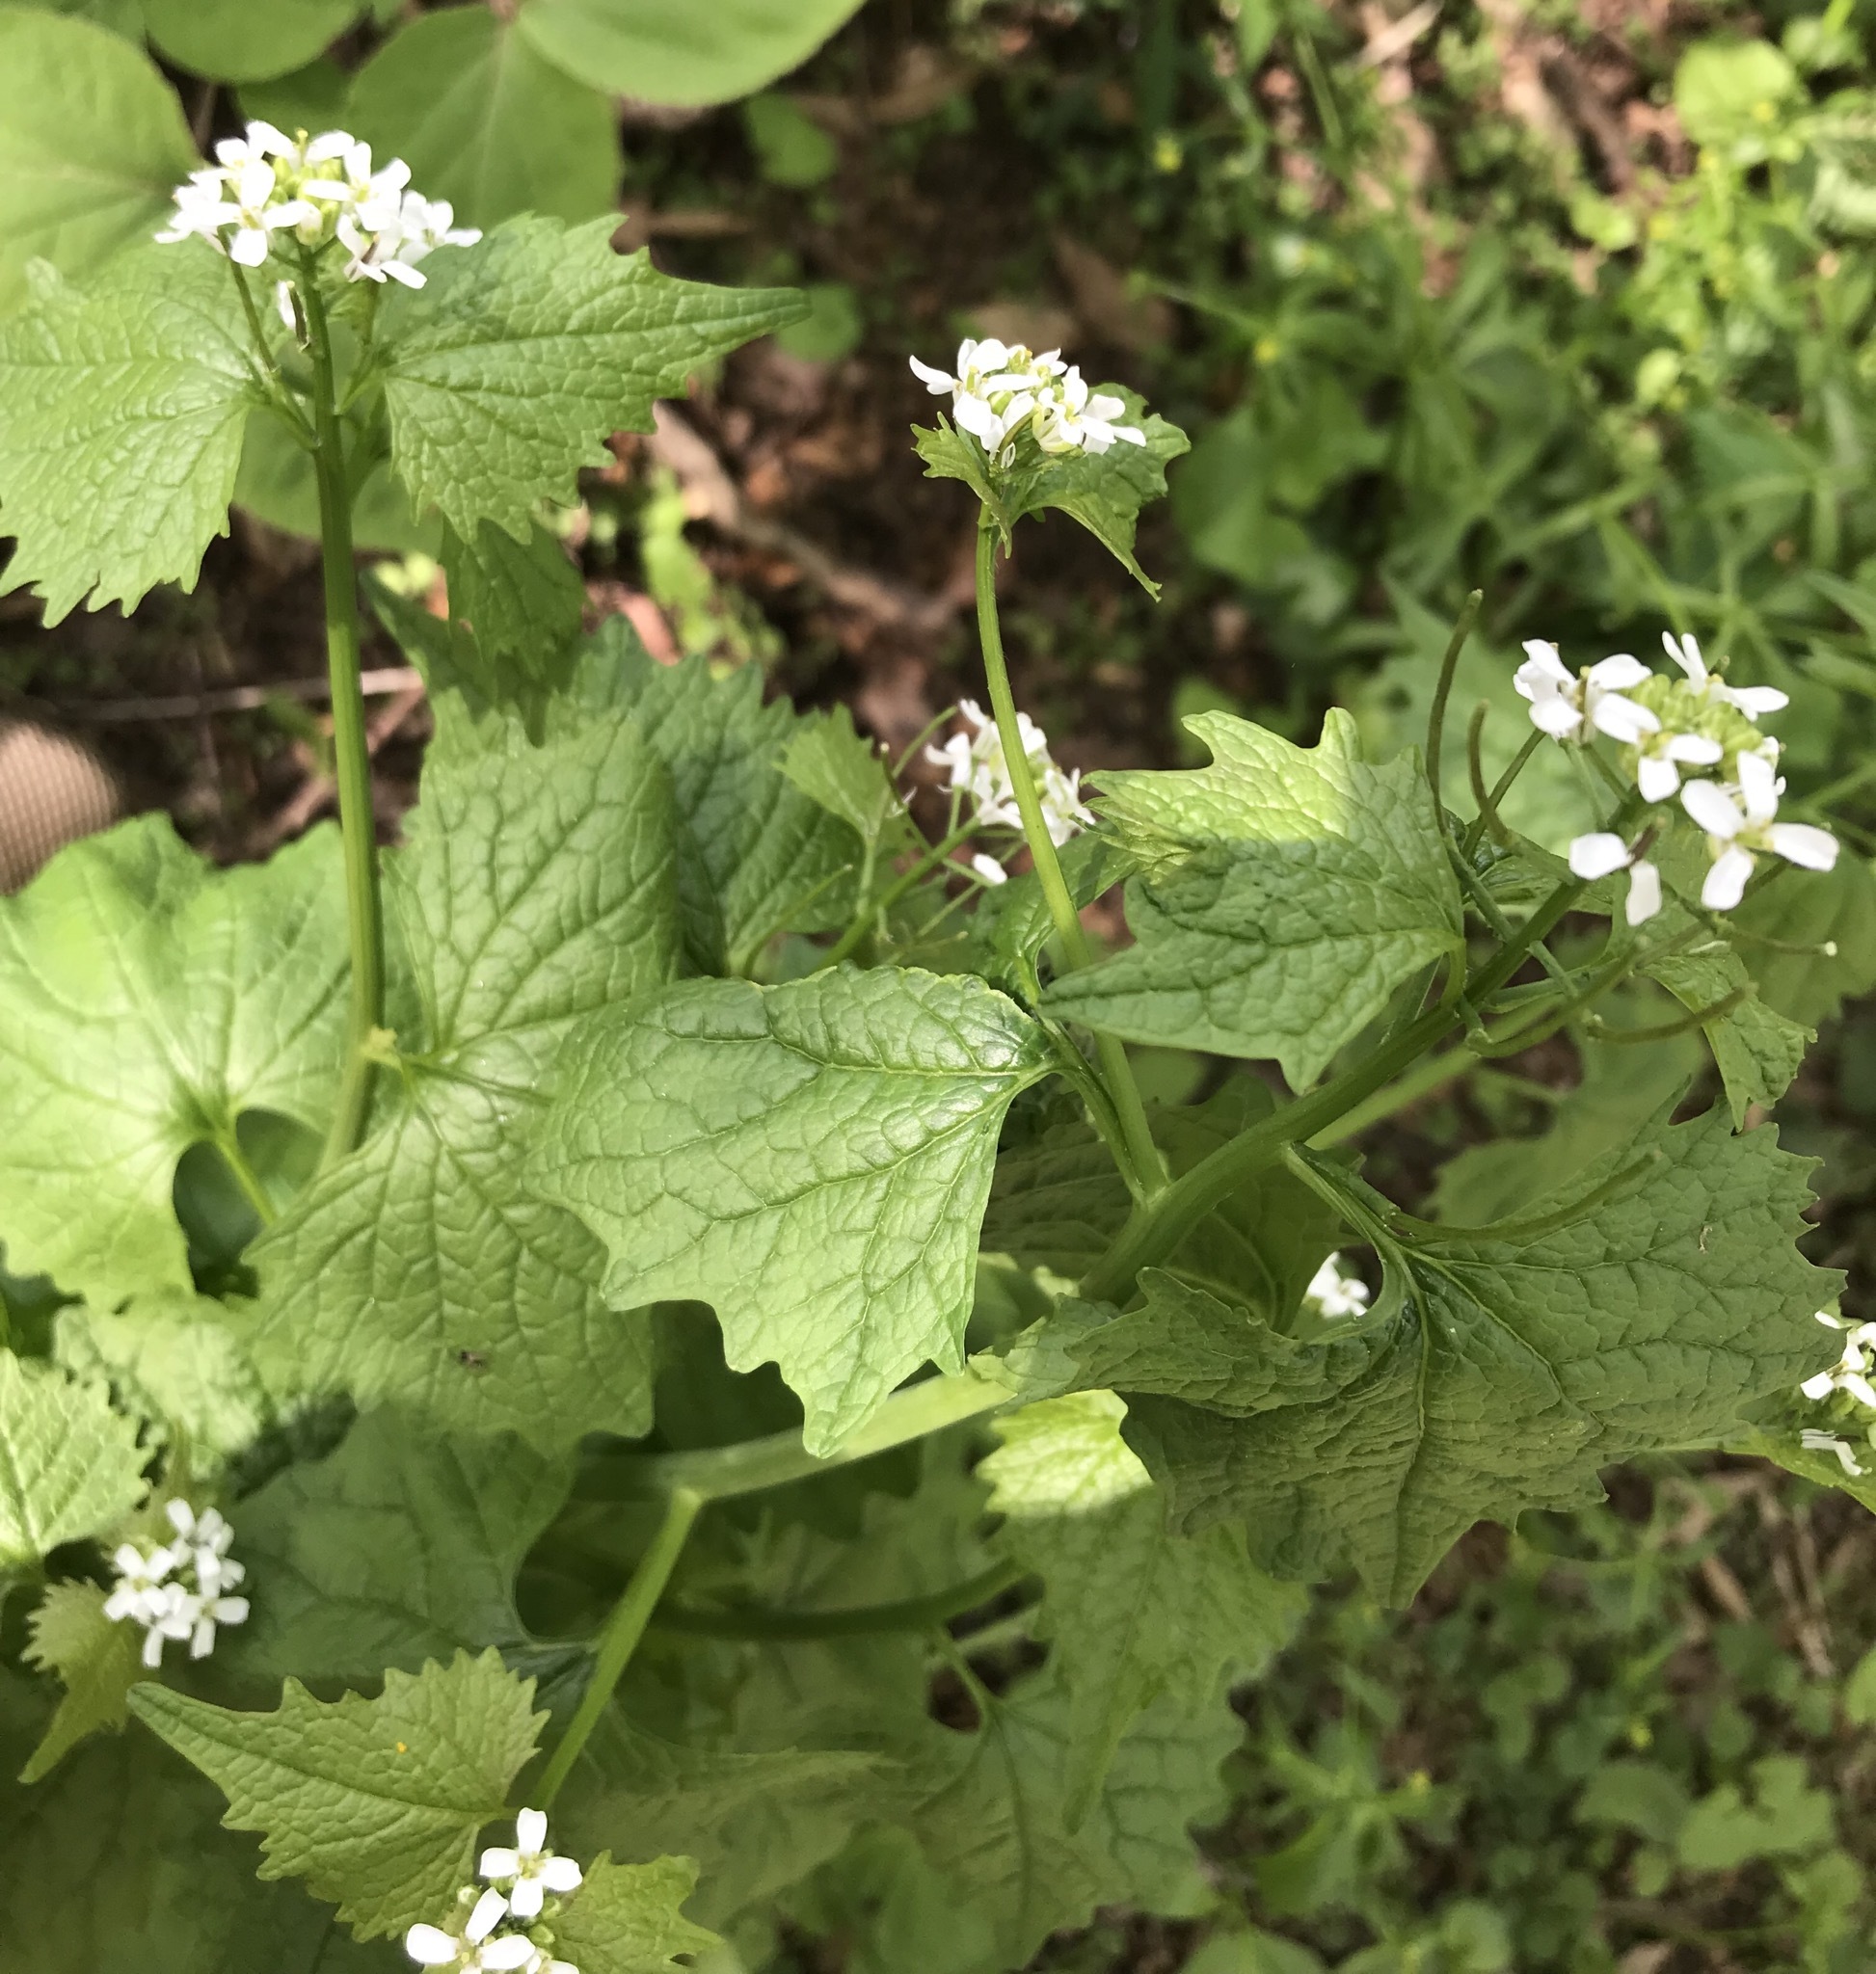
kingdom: Plantae
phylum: Tracheophyta
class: Magnoliopsida
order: Brassicales
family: Brassicaceae
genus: Alliaria
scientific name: Alliaria petiolata
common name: Garlic mustard
